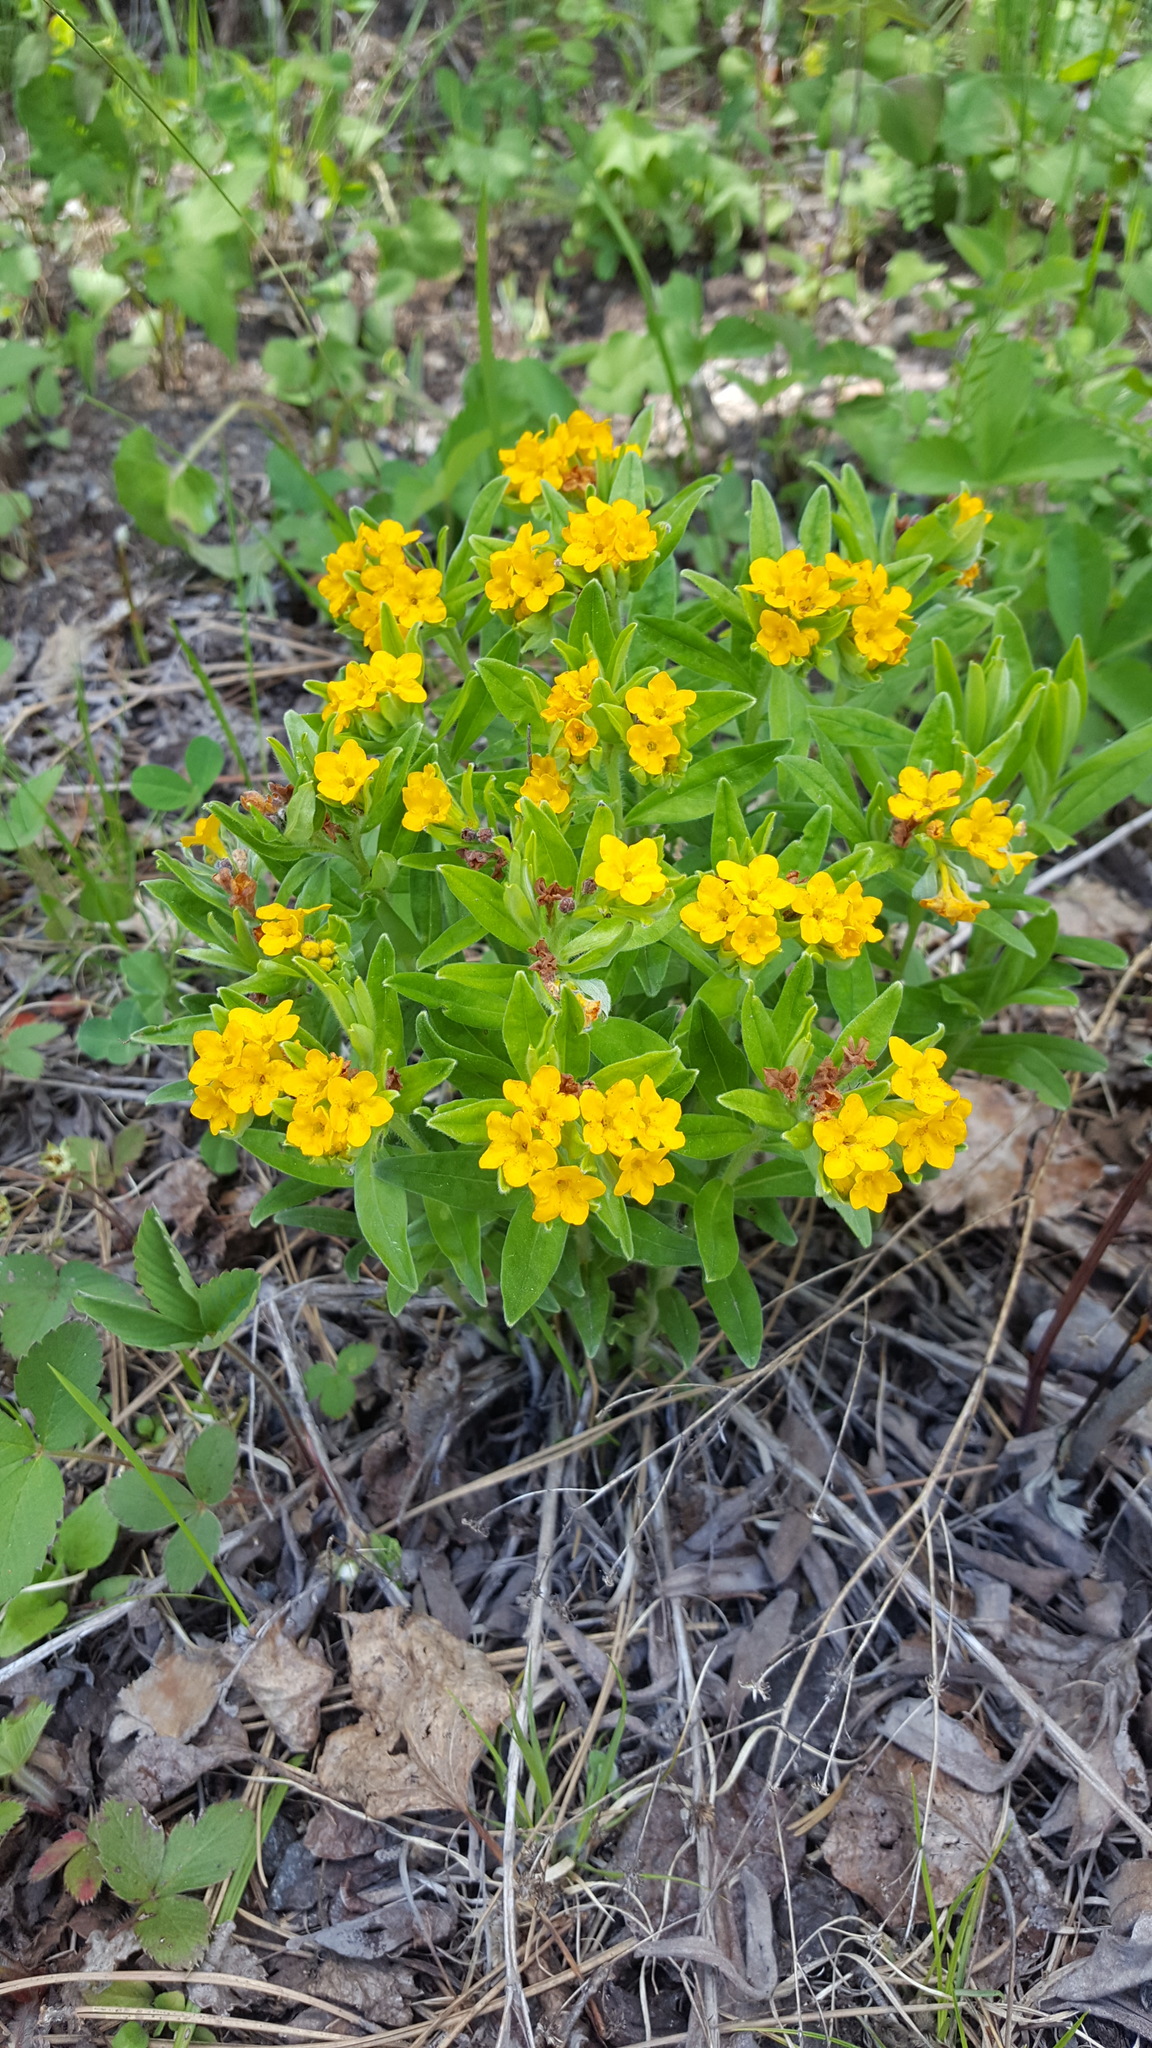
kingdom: Plantae
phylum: Tracheophyta
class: Magnoliopsida
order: Boraginales
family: Boraginaceae
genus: Lithospermum
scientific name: Lithospermum canescens
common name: Hoary puccoon
